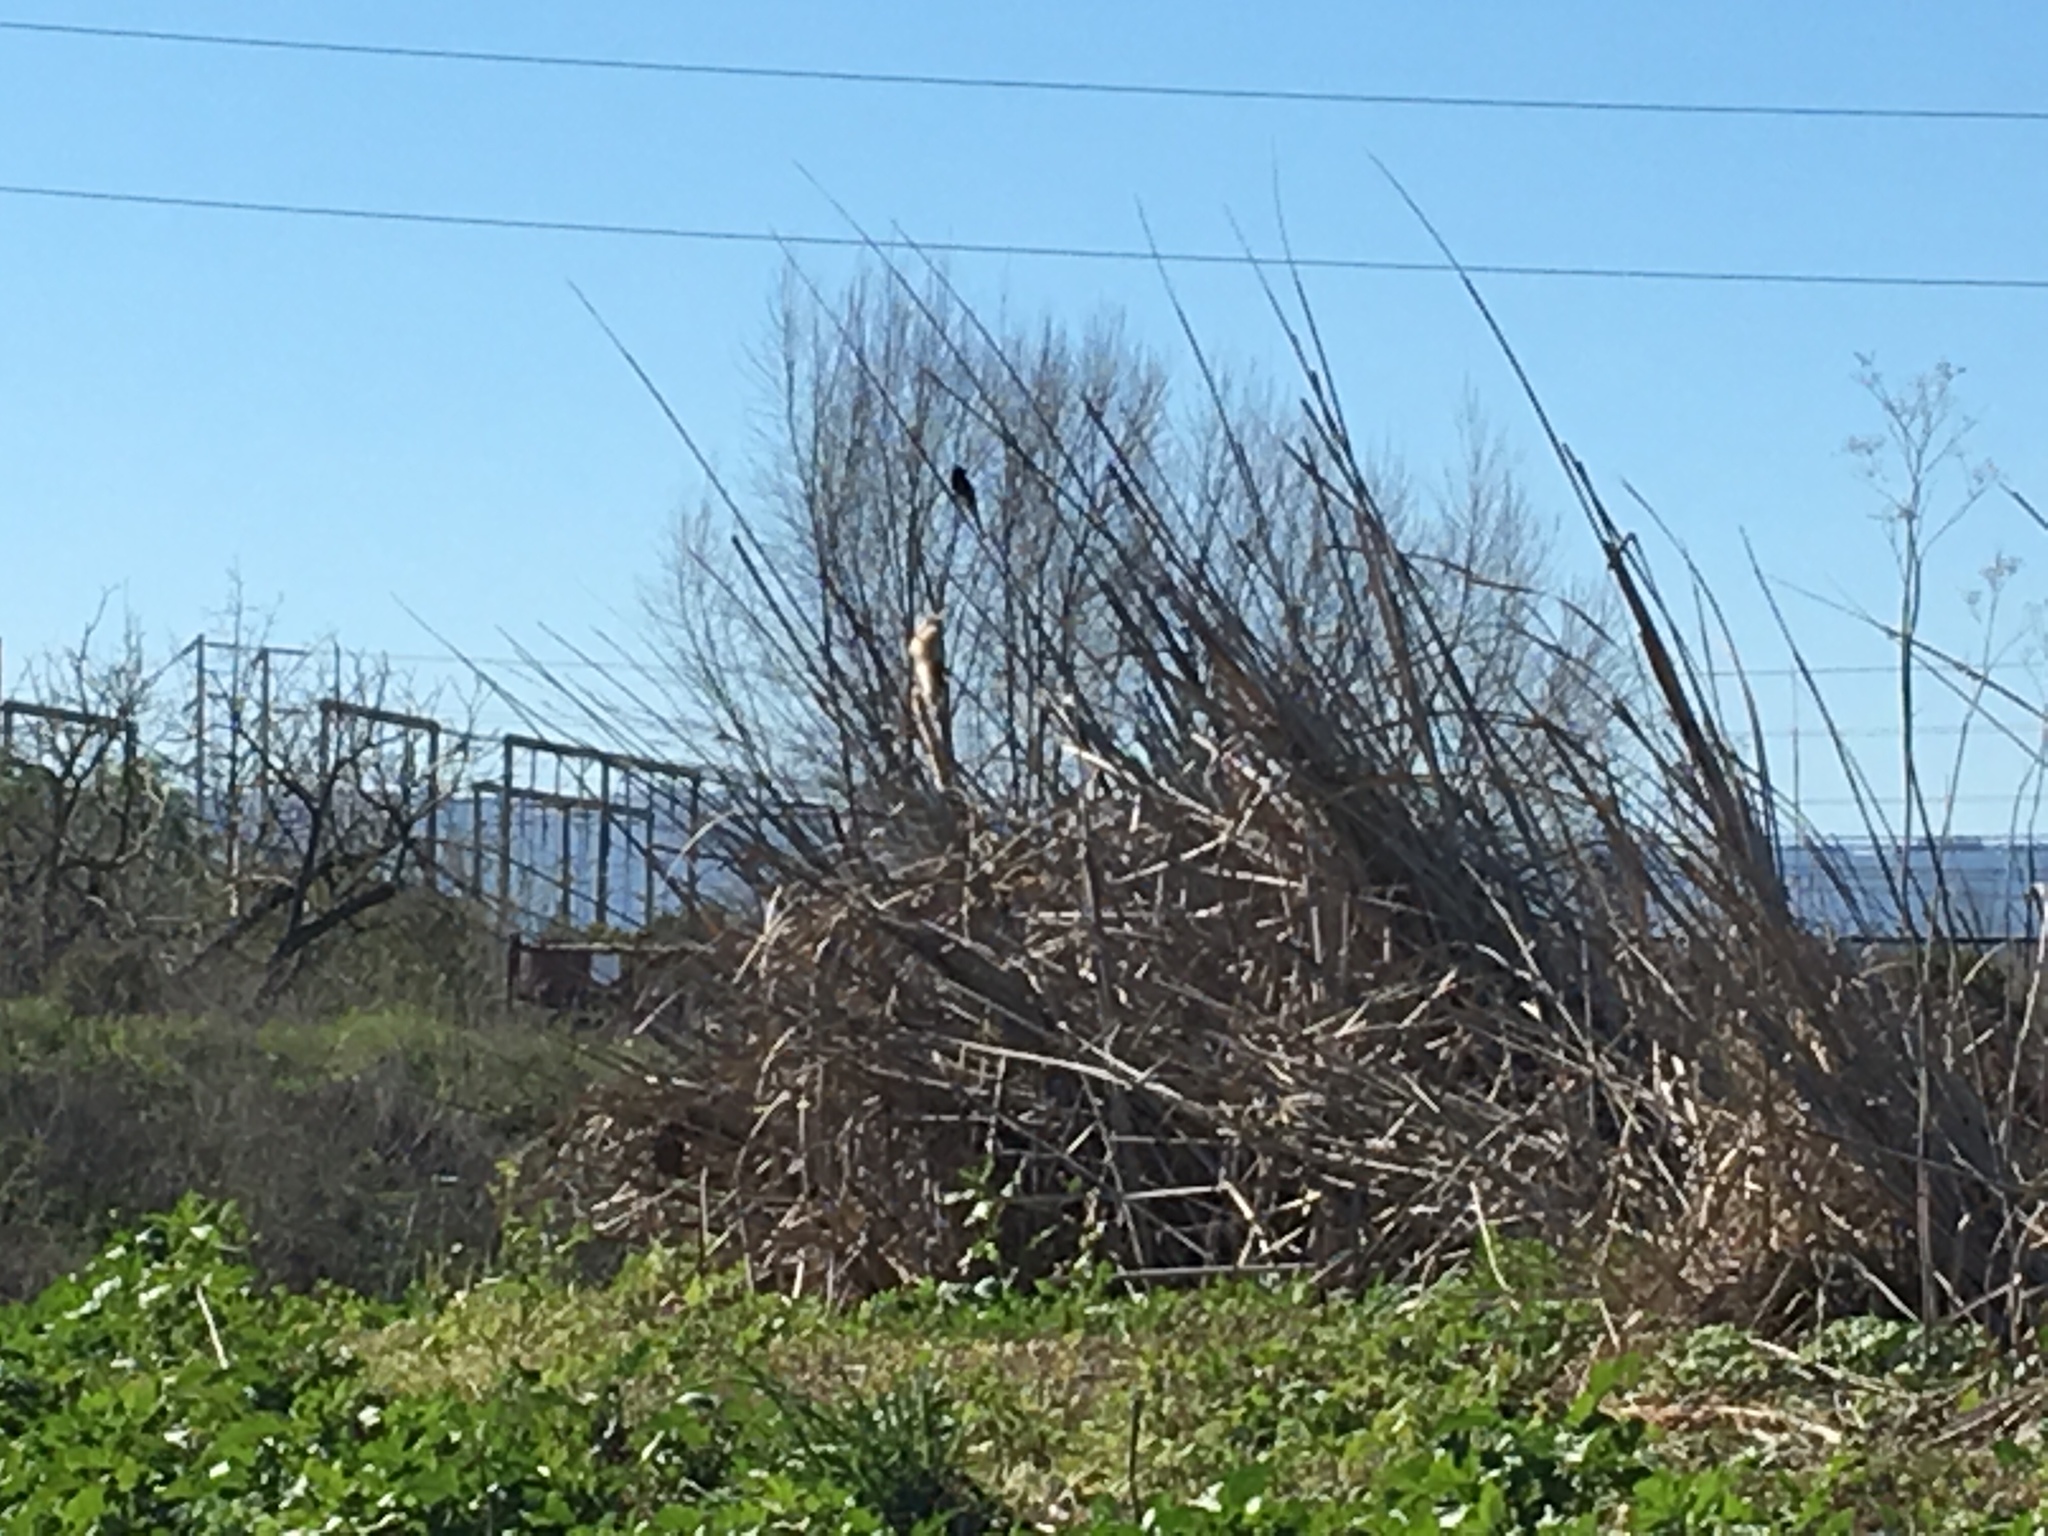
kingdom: Animalia
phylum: Chordata
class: Aves
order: Passeriformes
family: Tyrannidae
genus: Sayornis
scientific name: Sayornis nigricans
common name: Black phoebe
